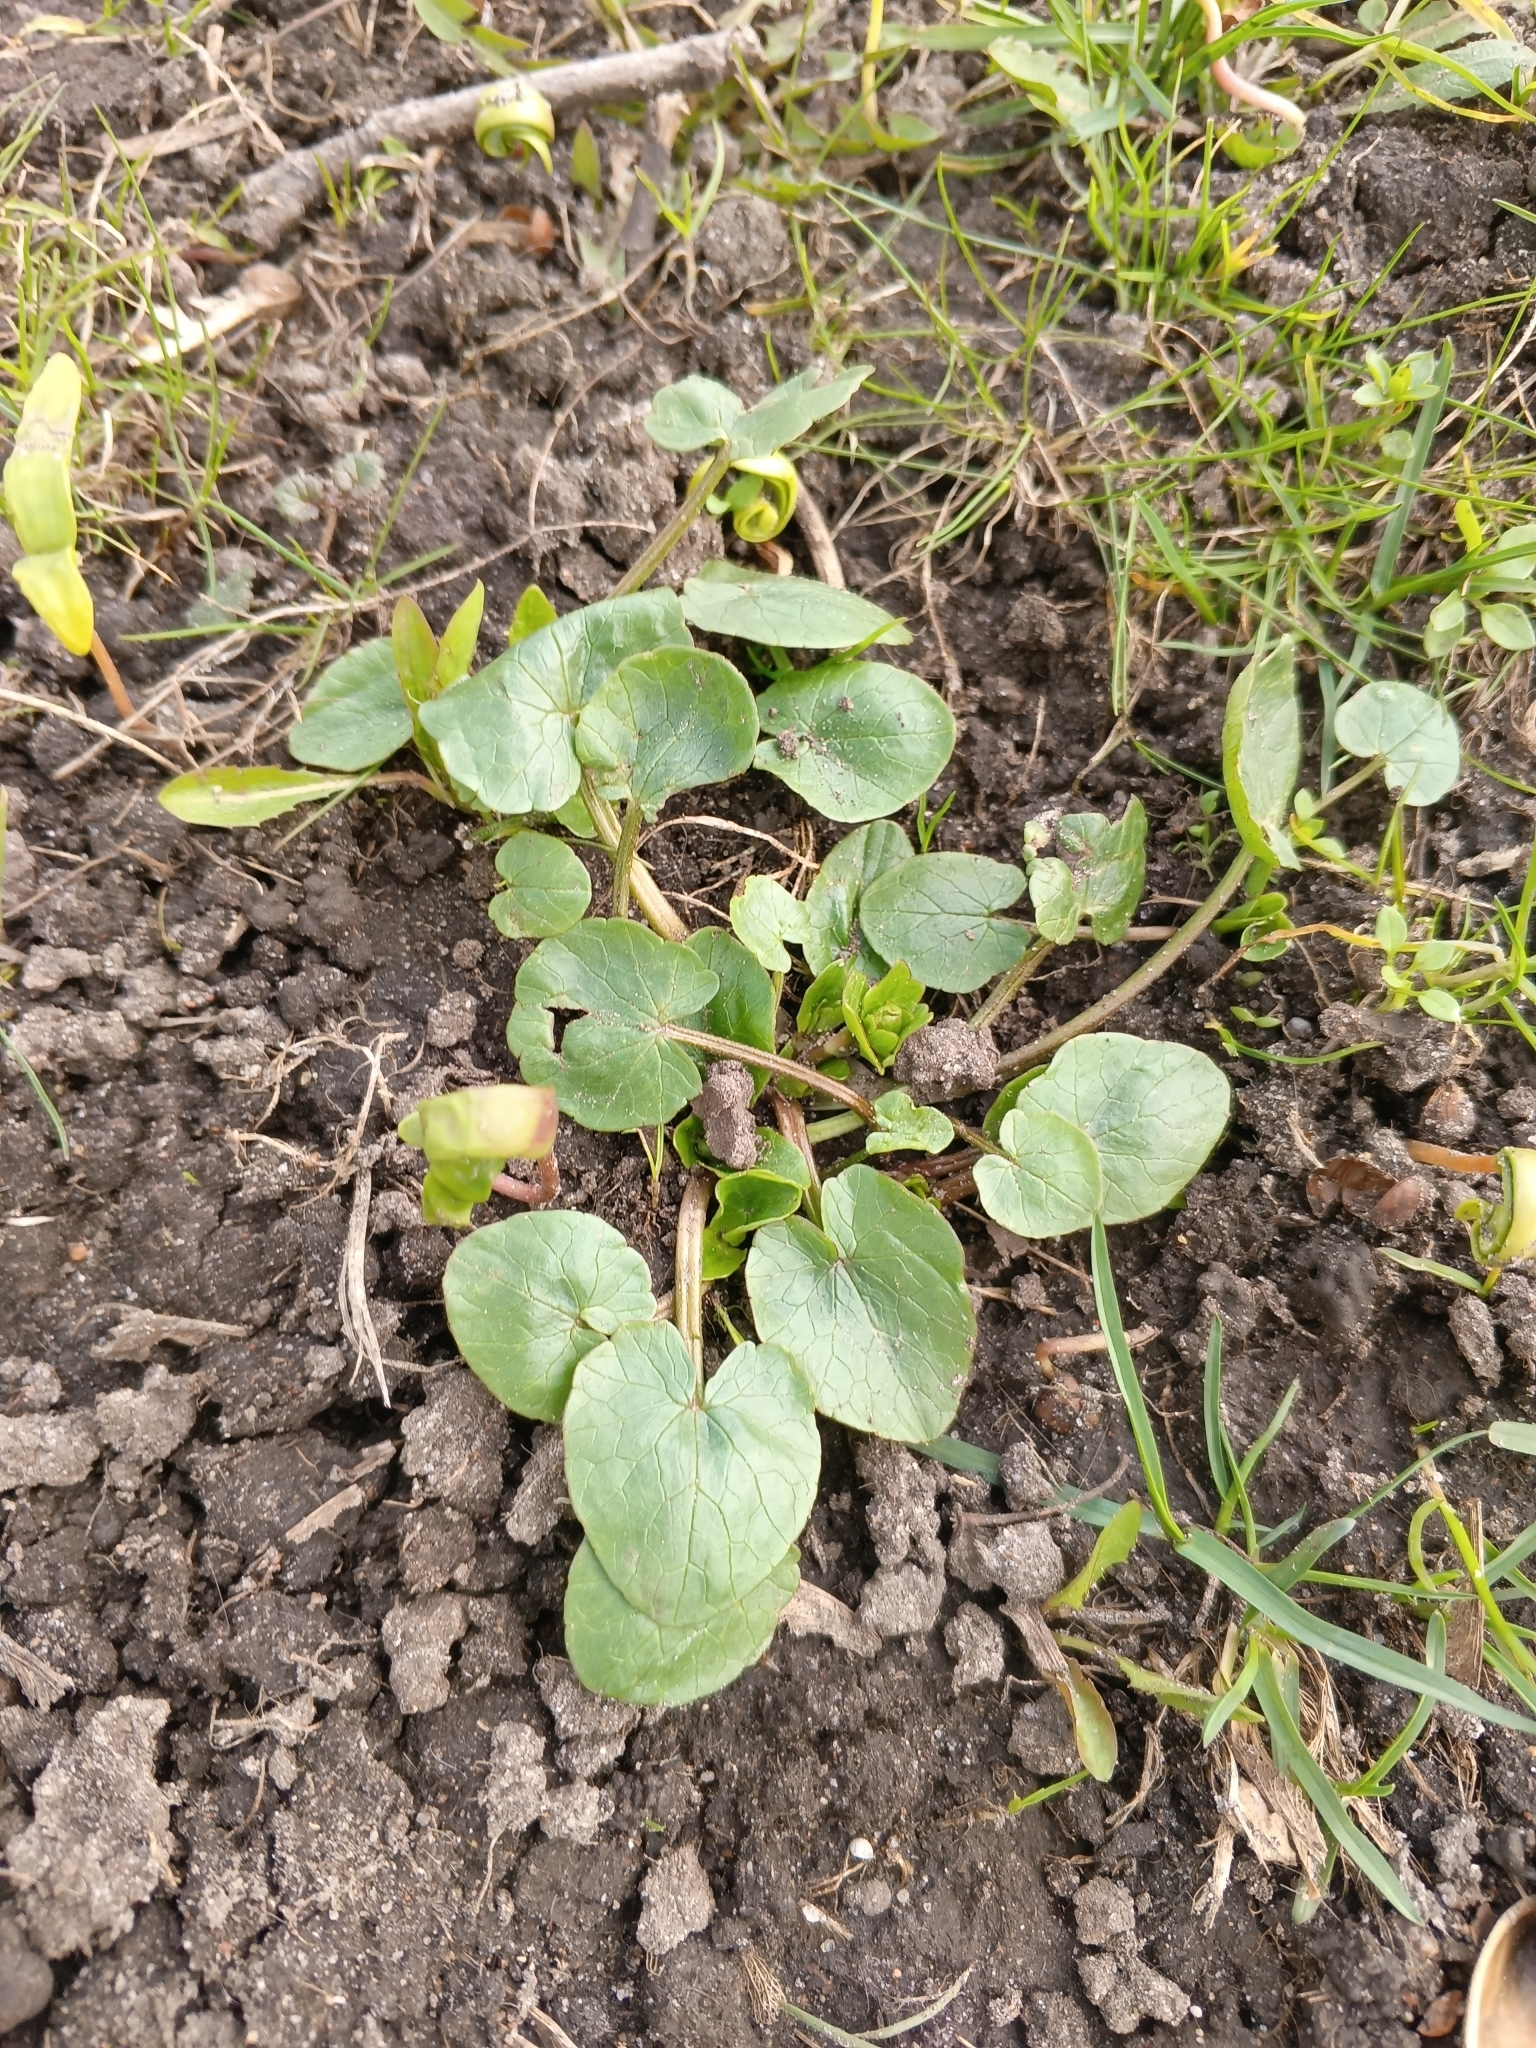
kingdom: Plantae
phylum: Tracheophyta
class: Magnoliopsida
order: Ranunculales
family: Ranunculaceae
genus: Ficaria
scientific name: Ficaria verna
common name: Lesser celandine
